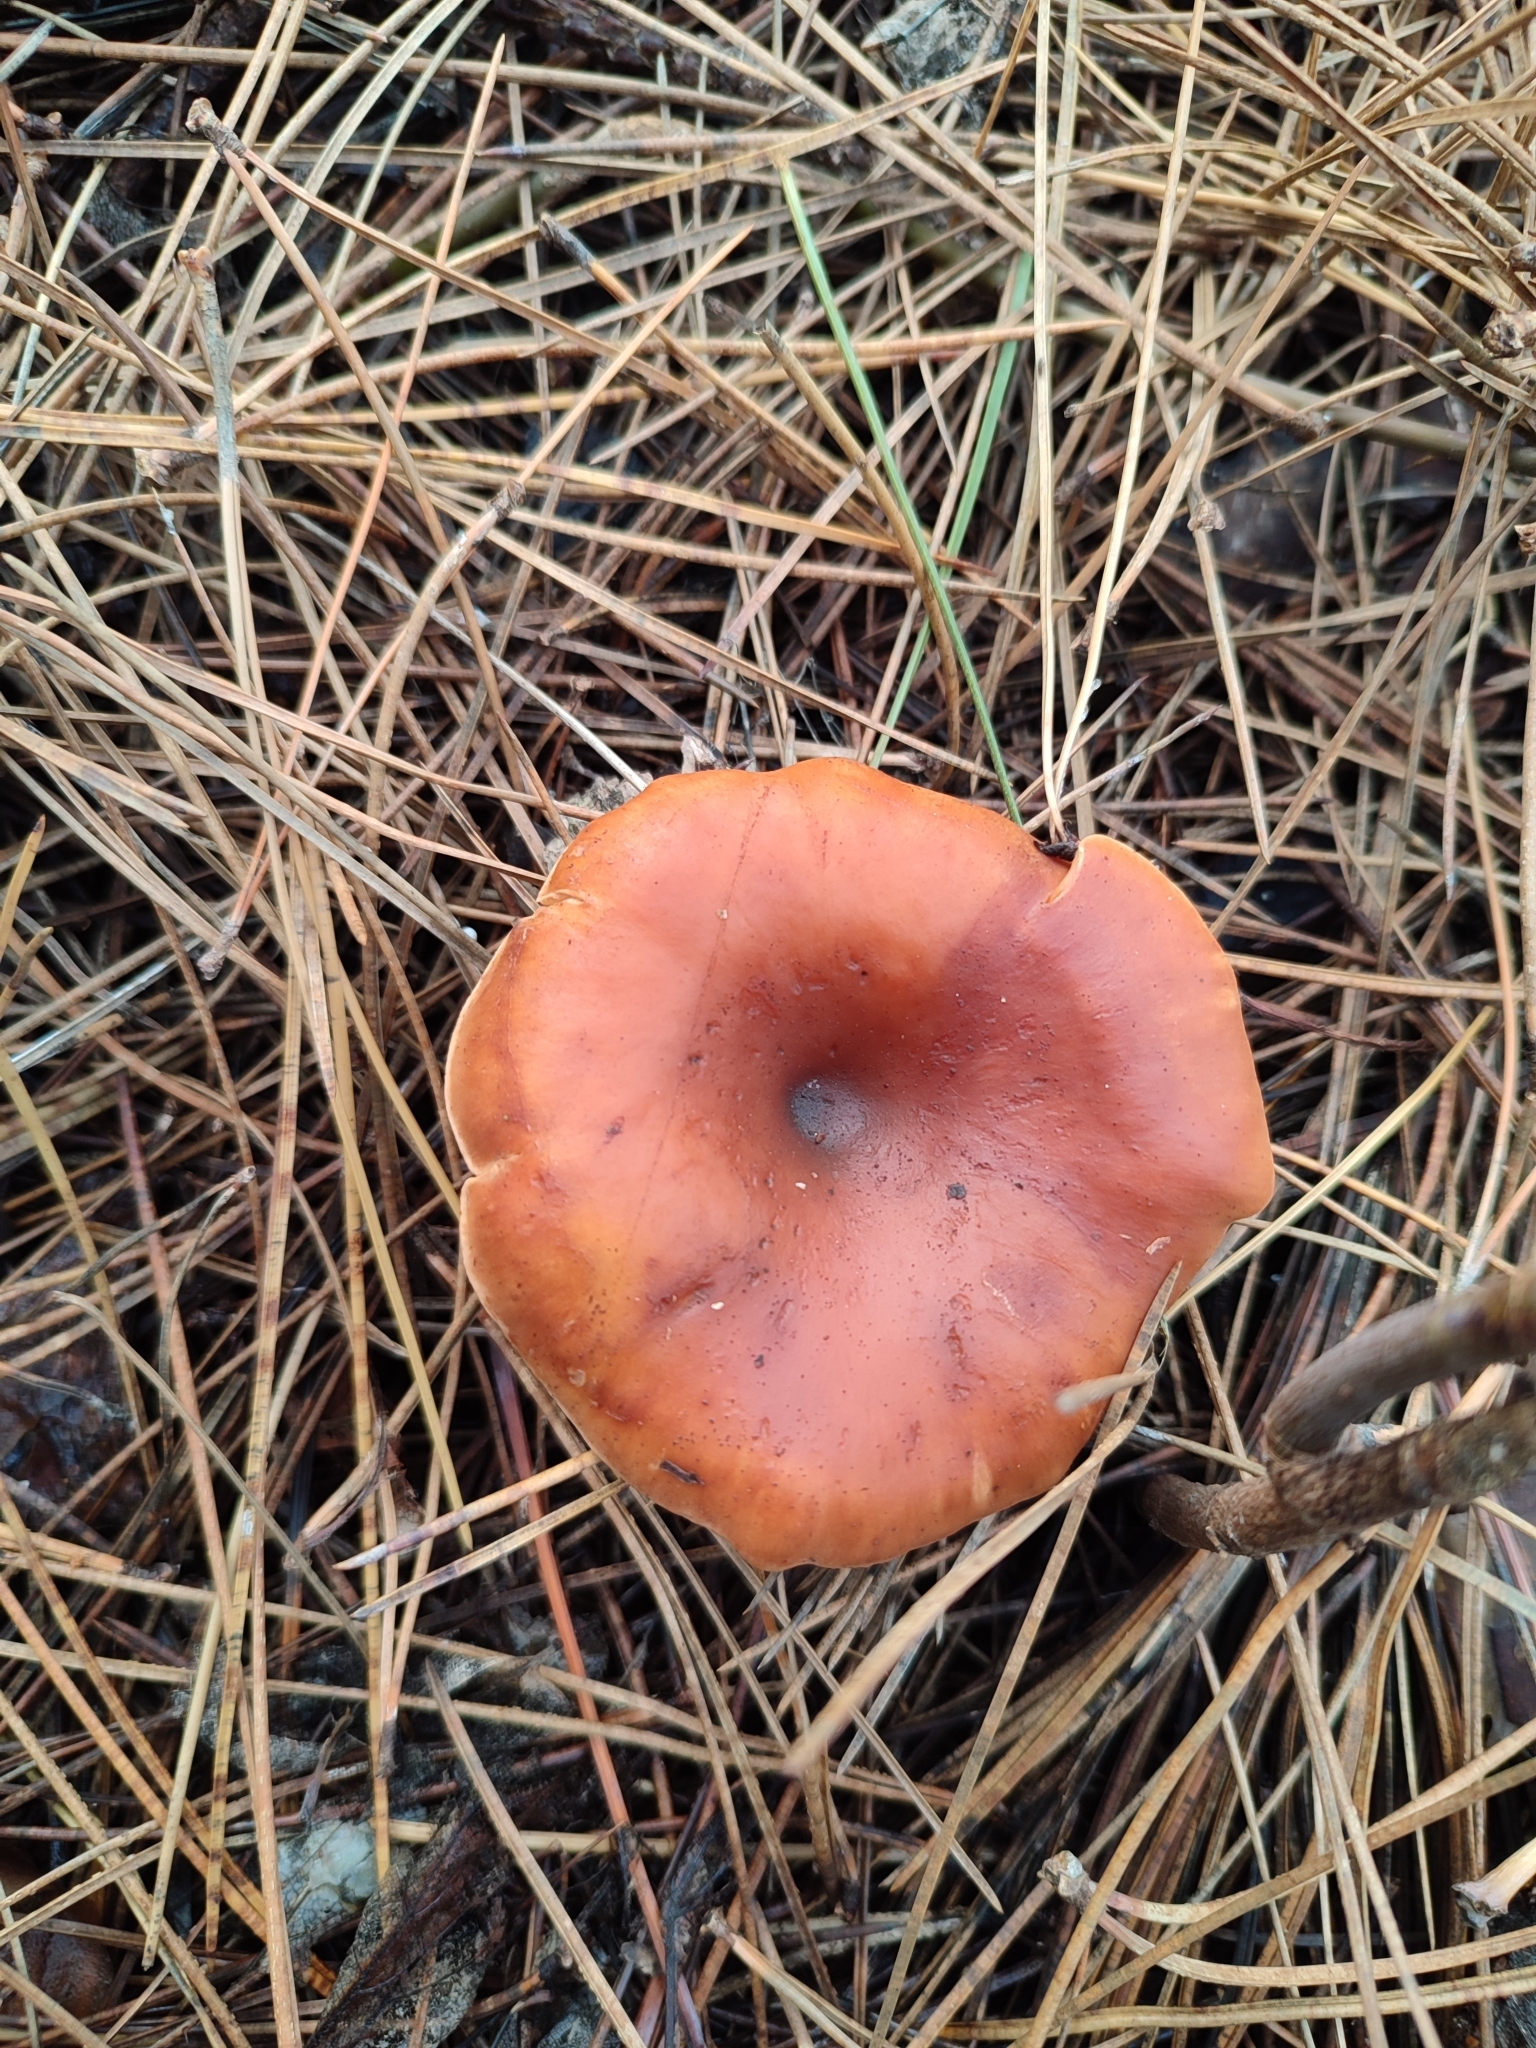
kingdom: Fungi
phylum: Basidiomycota
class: Agaricomycetes
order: Agaricales
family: Tricholomataceae
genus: Paralepista
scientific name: Paralepista flaccida
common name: Tawny funnel cap
